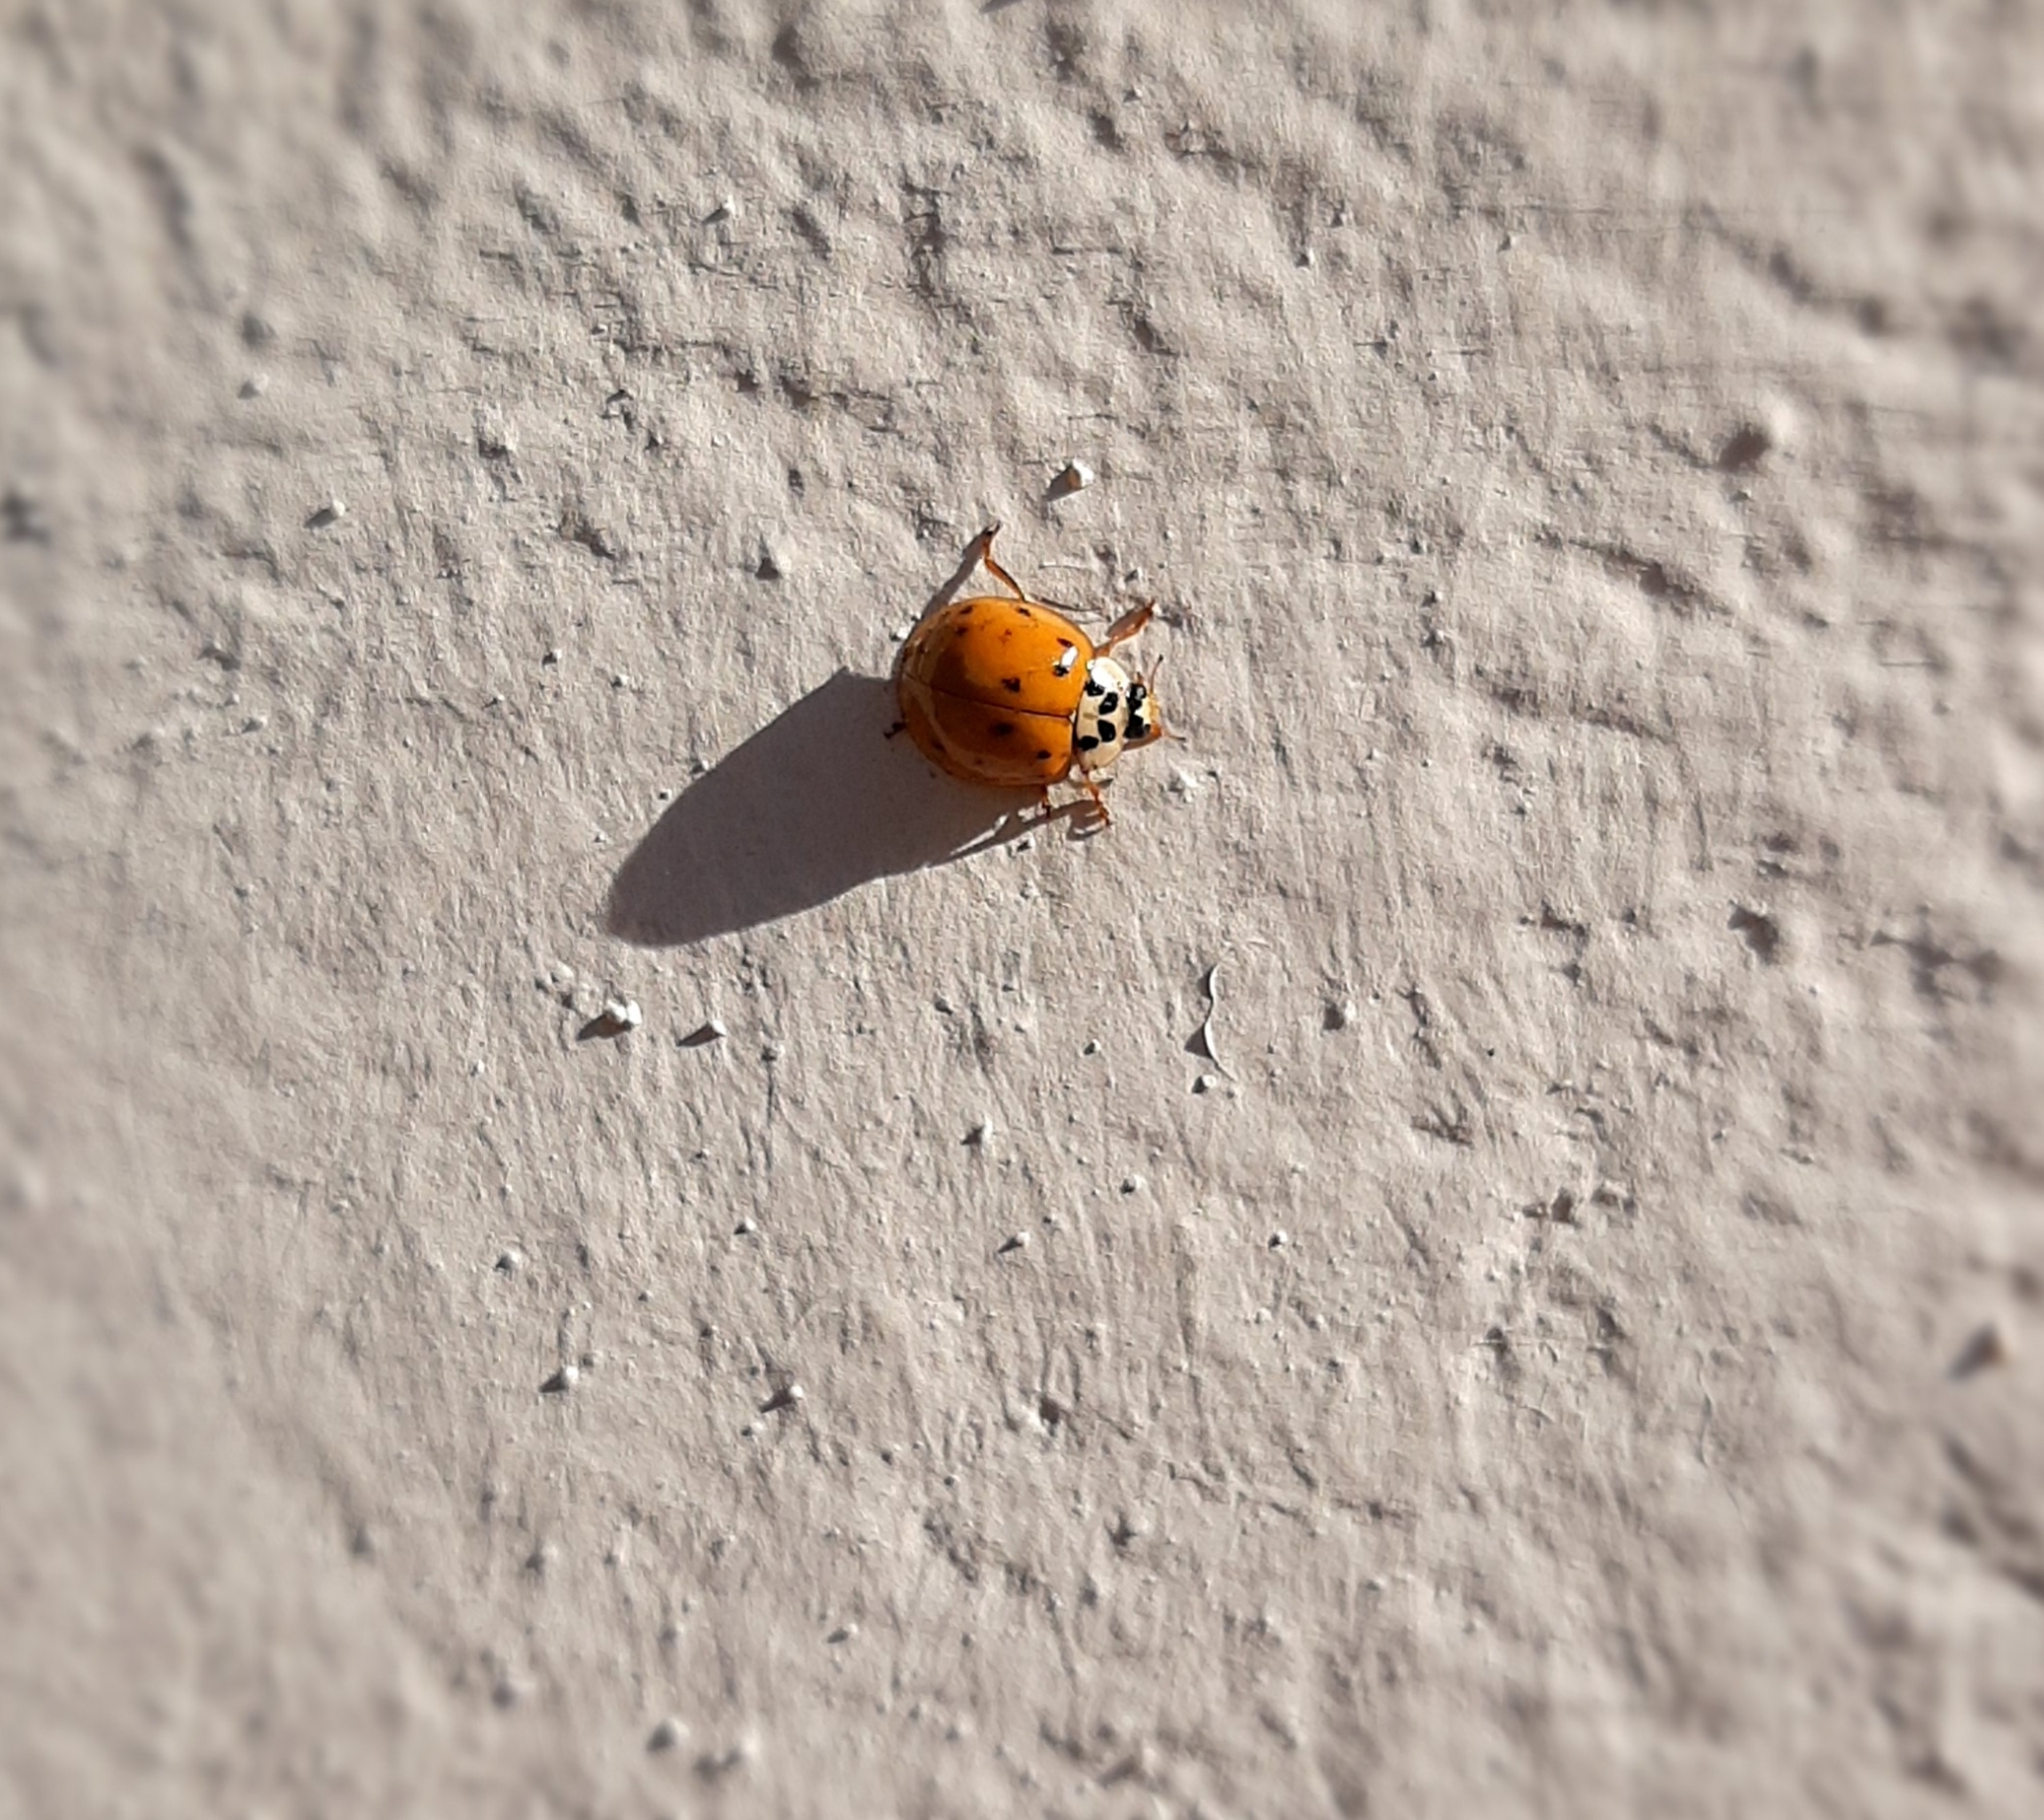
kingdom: Animalia
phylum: Arthropoda
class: Insecta
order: Coleoptera
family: Coccinellidae
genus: Harmonia
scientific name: Harmonia axyridis
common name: Harlequin ladybird
